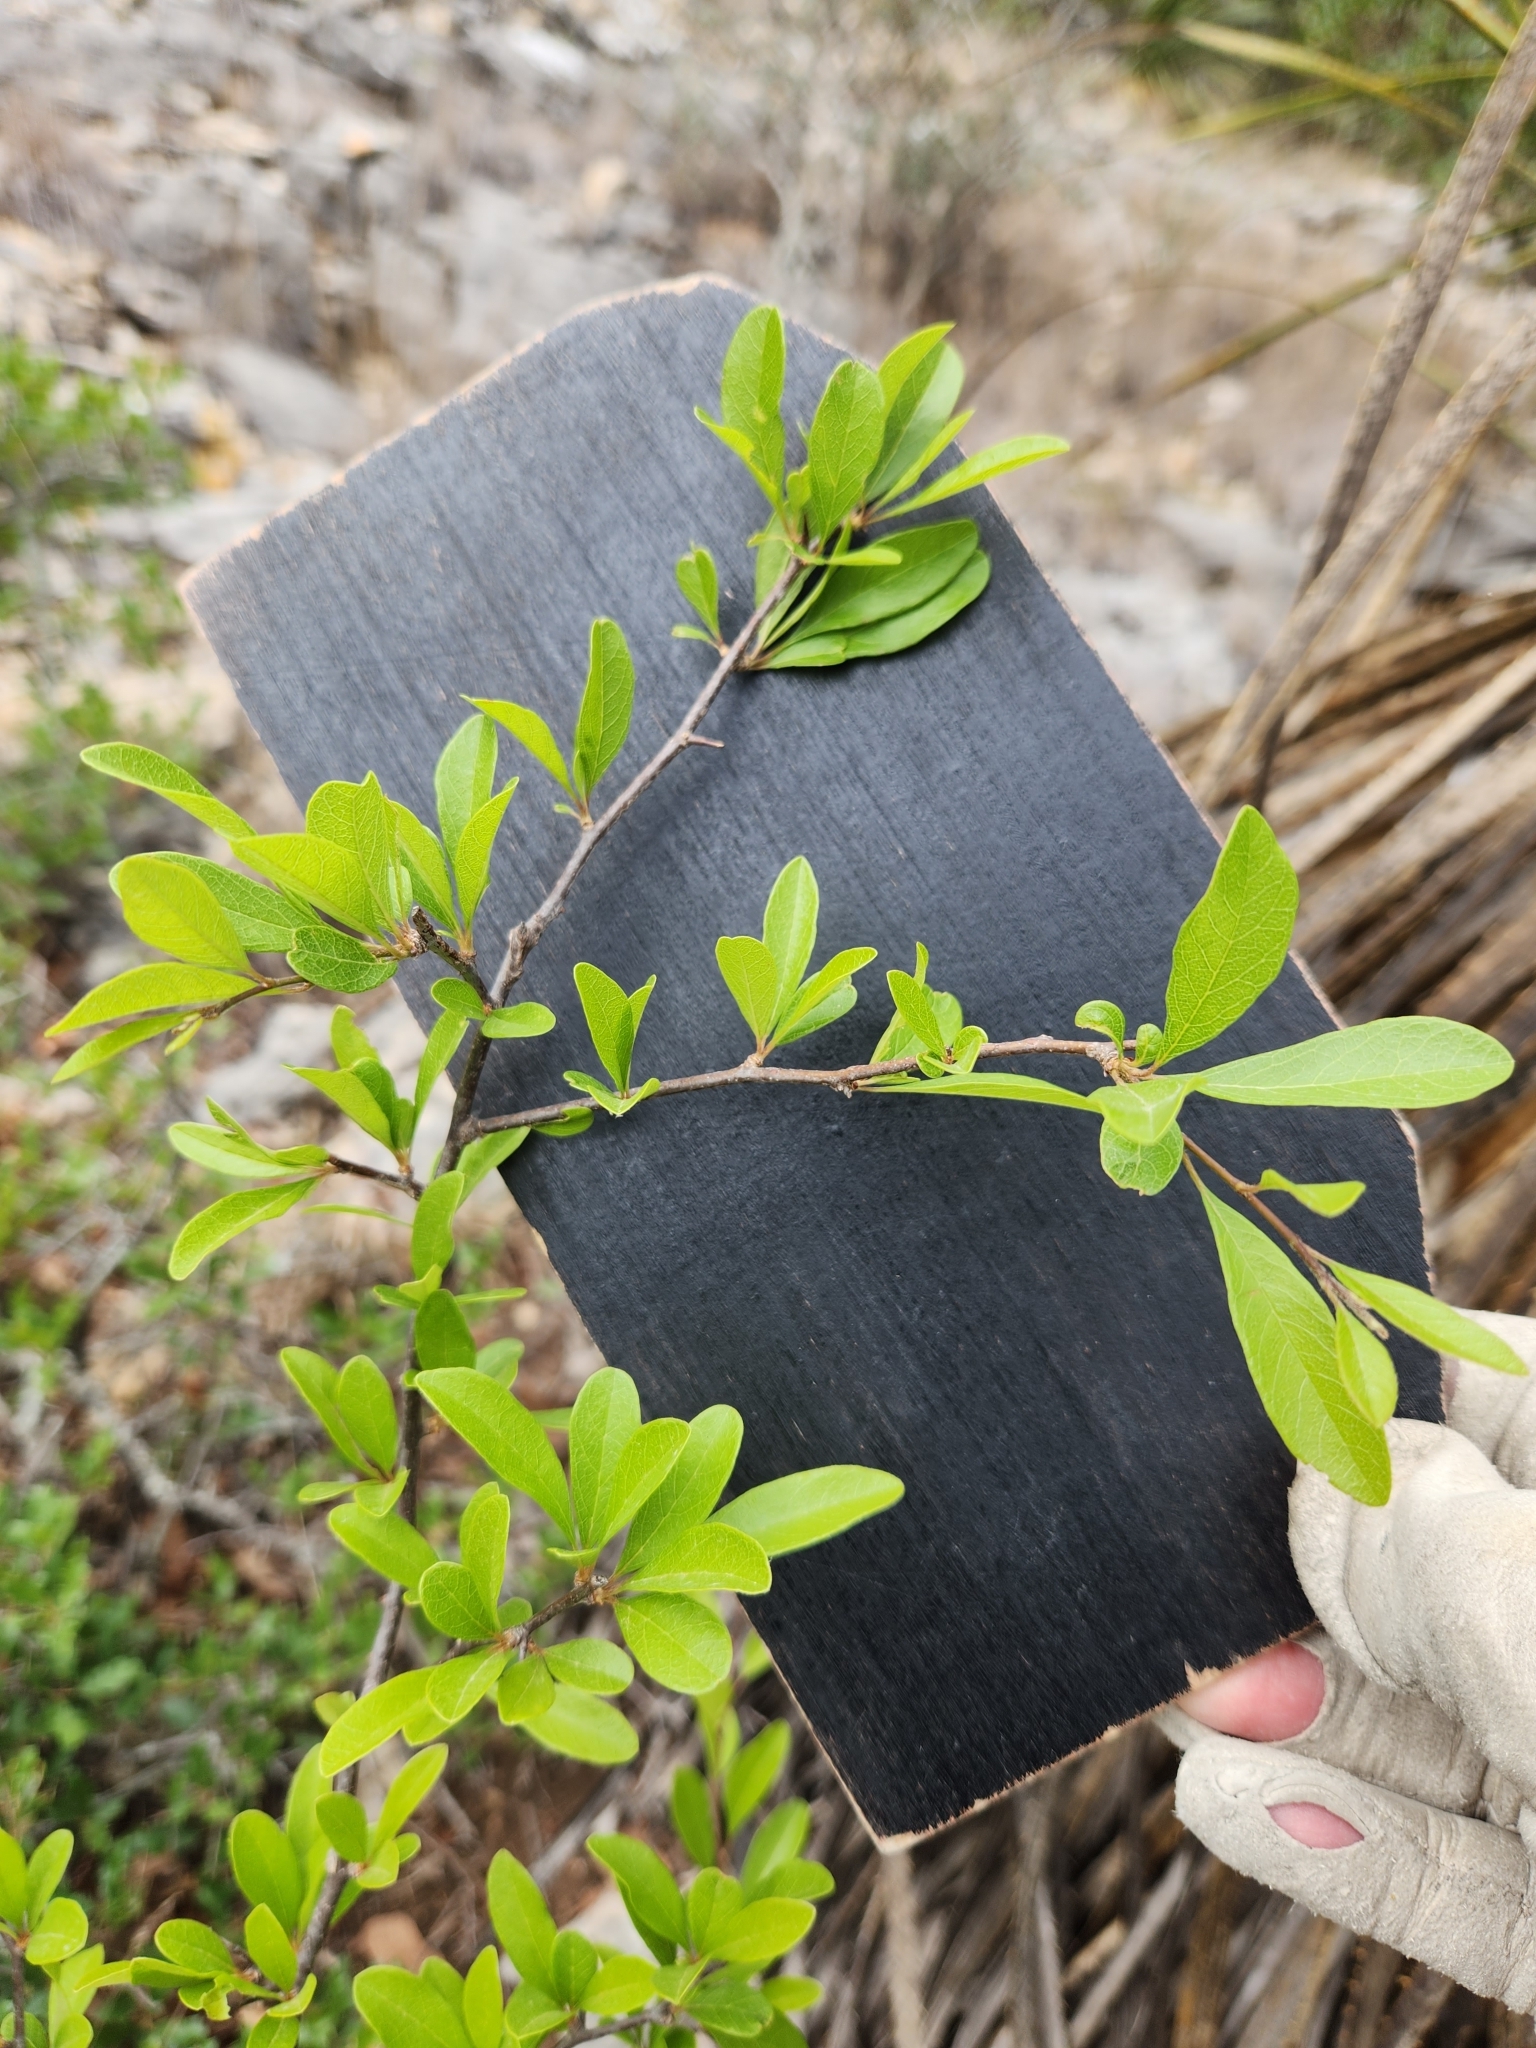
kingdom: Plantae
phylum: Tracheophyta
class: Magnoliopsida
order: Ericales
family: Sapotaceae
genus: Sideroxylon
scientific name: Sideroxylon lanuginosum
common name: Chittamwood
